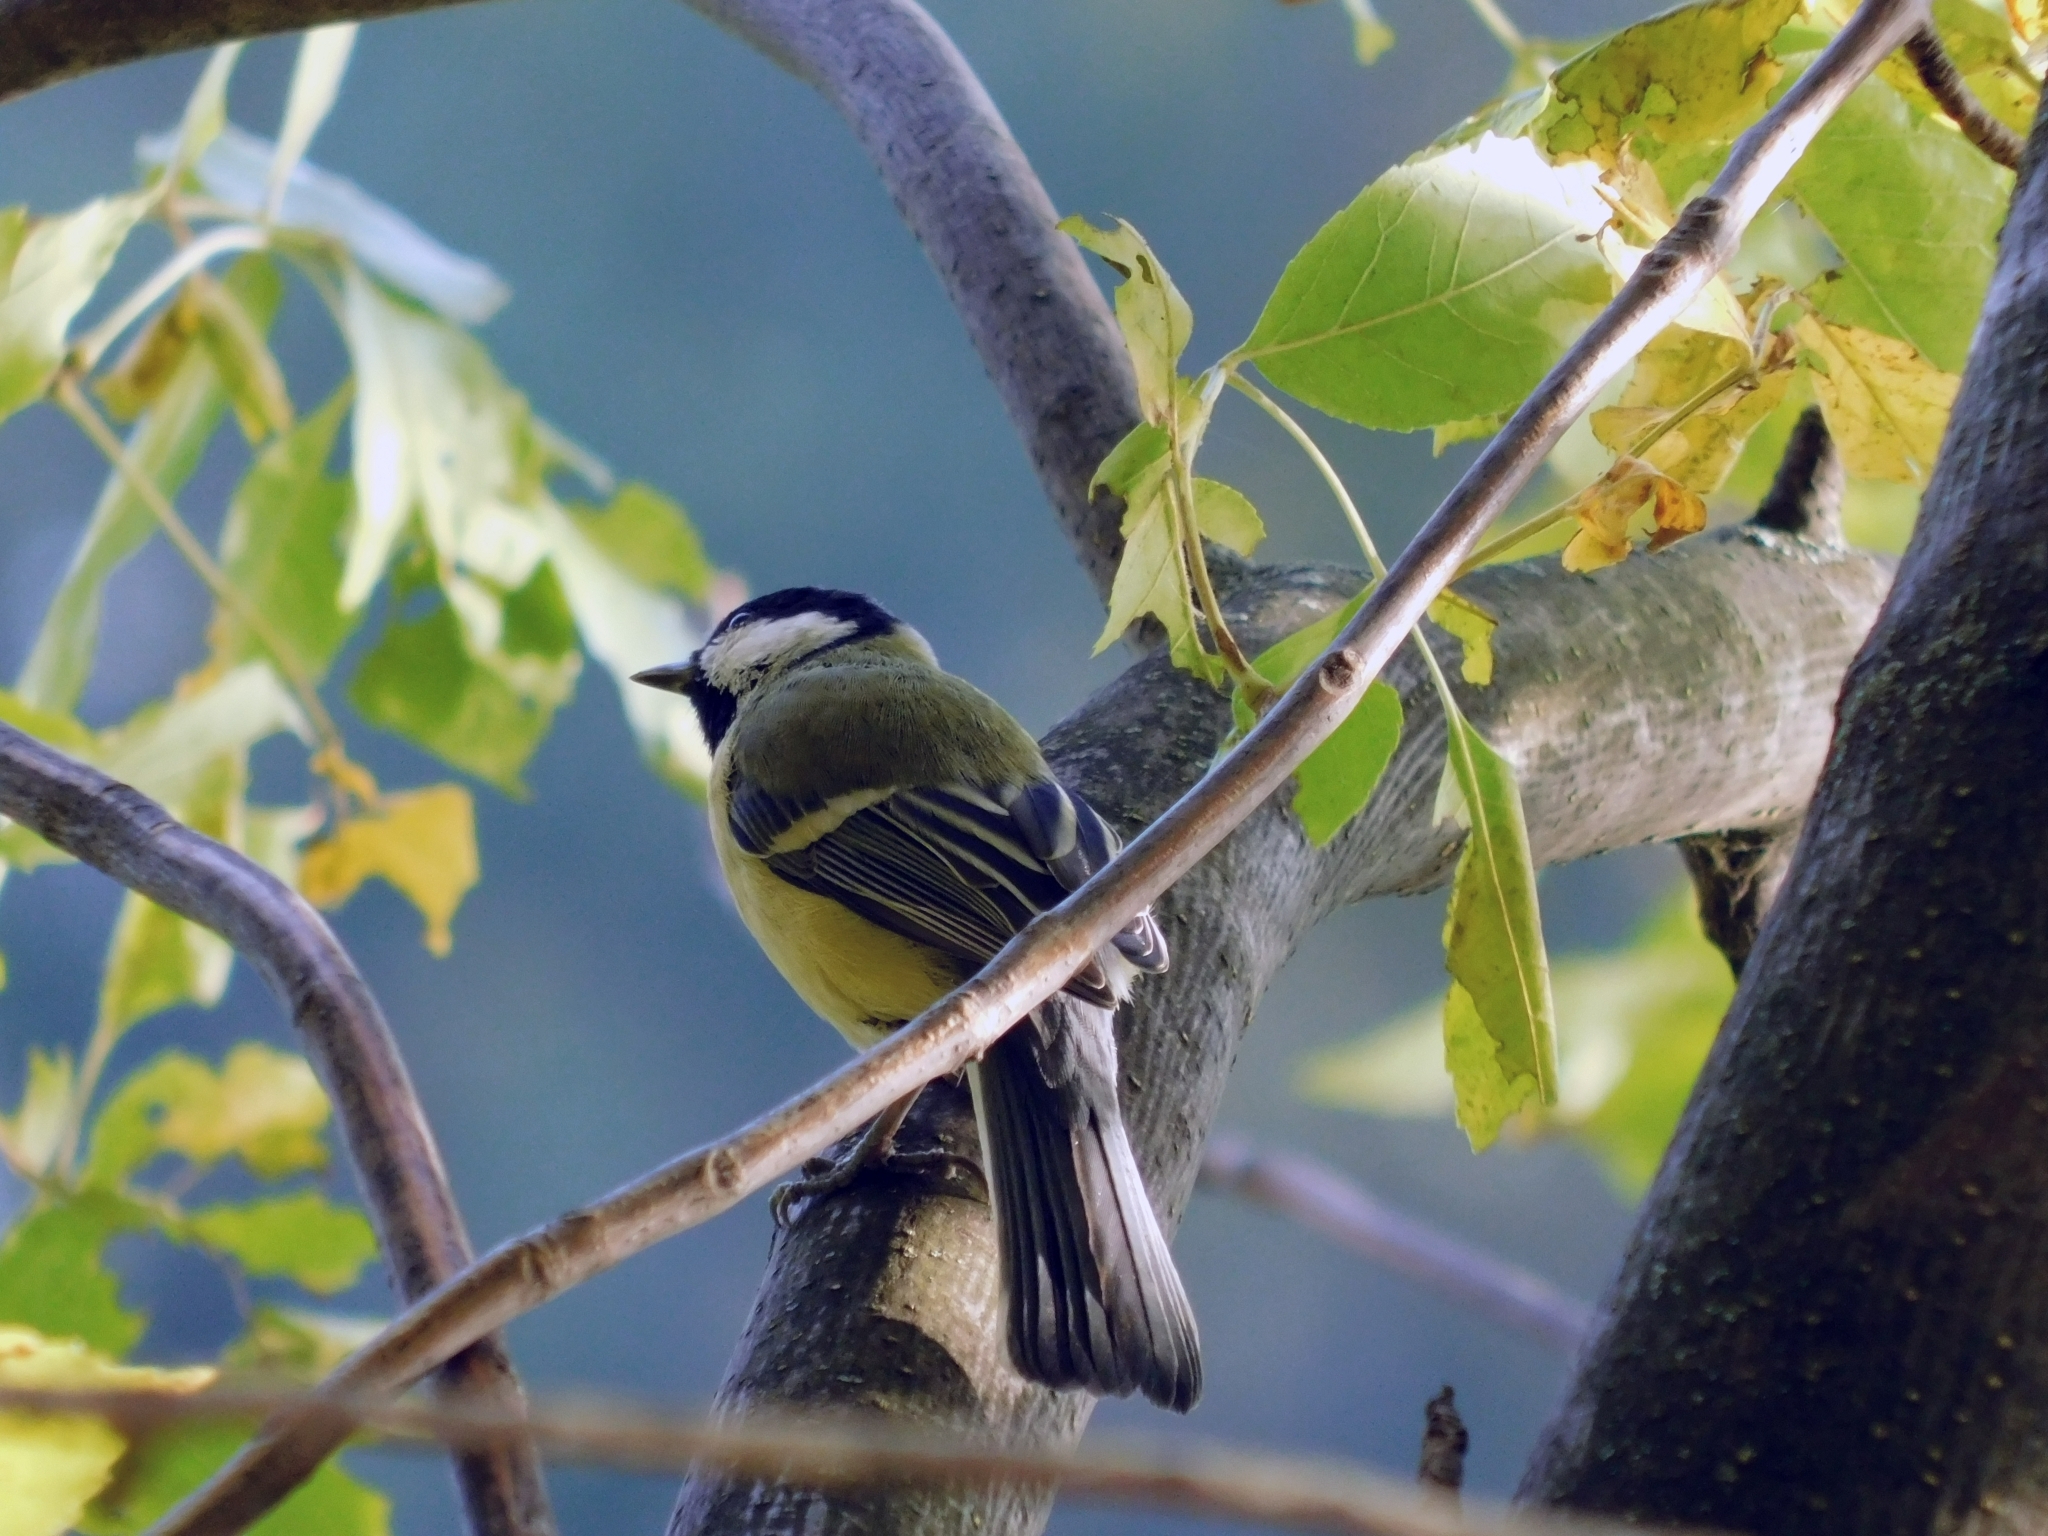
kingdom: Animalia
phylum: Chordata
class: Aves
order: Passeriformes
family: Paridae
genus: Parus
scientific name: Parus major
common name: Great tit
